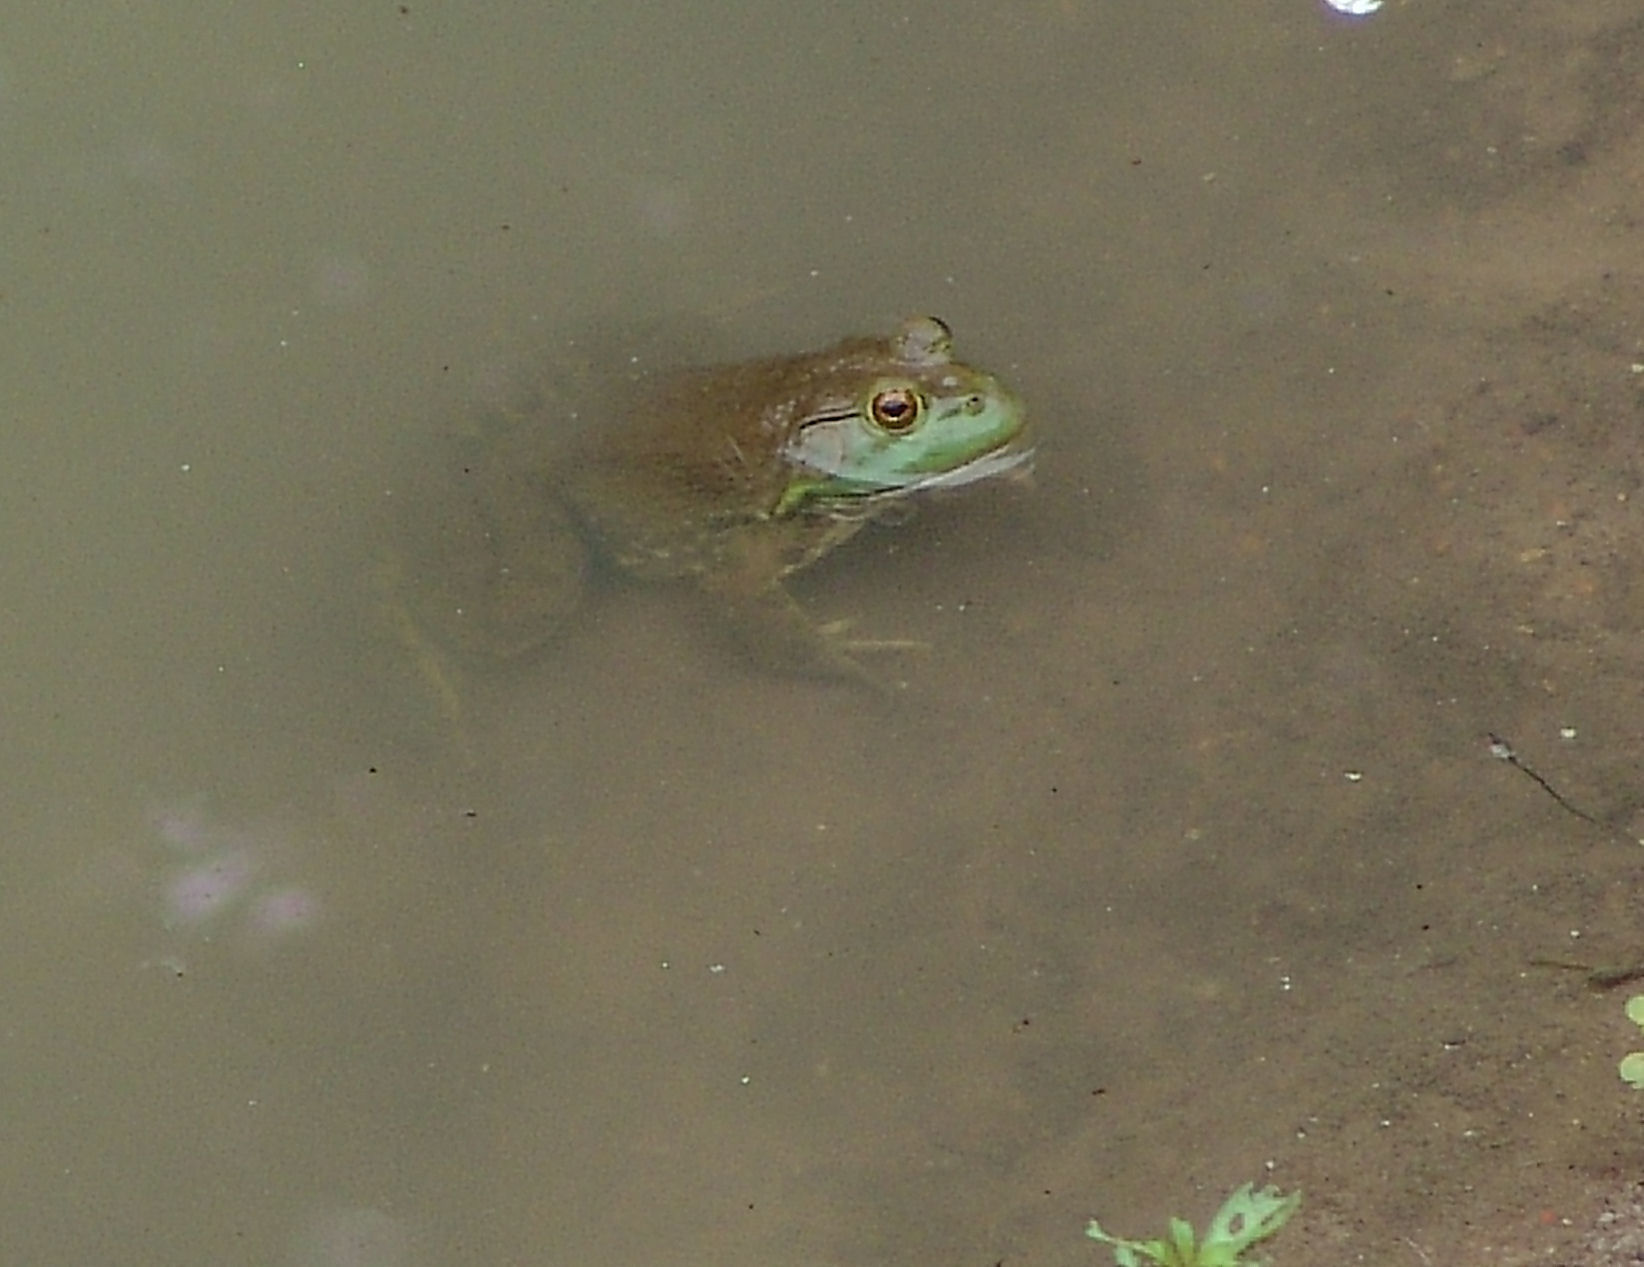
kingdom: Animalia
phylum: Chordata
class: Amphibia
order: Anura
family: Ranidae
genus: Lithobates
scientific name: Lithobates catesbeianus
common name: American bullfrog
